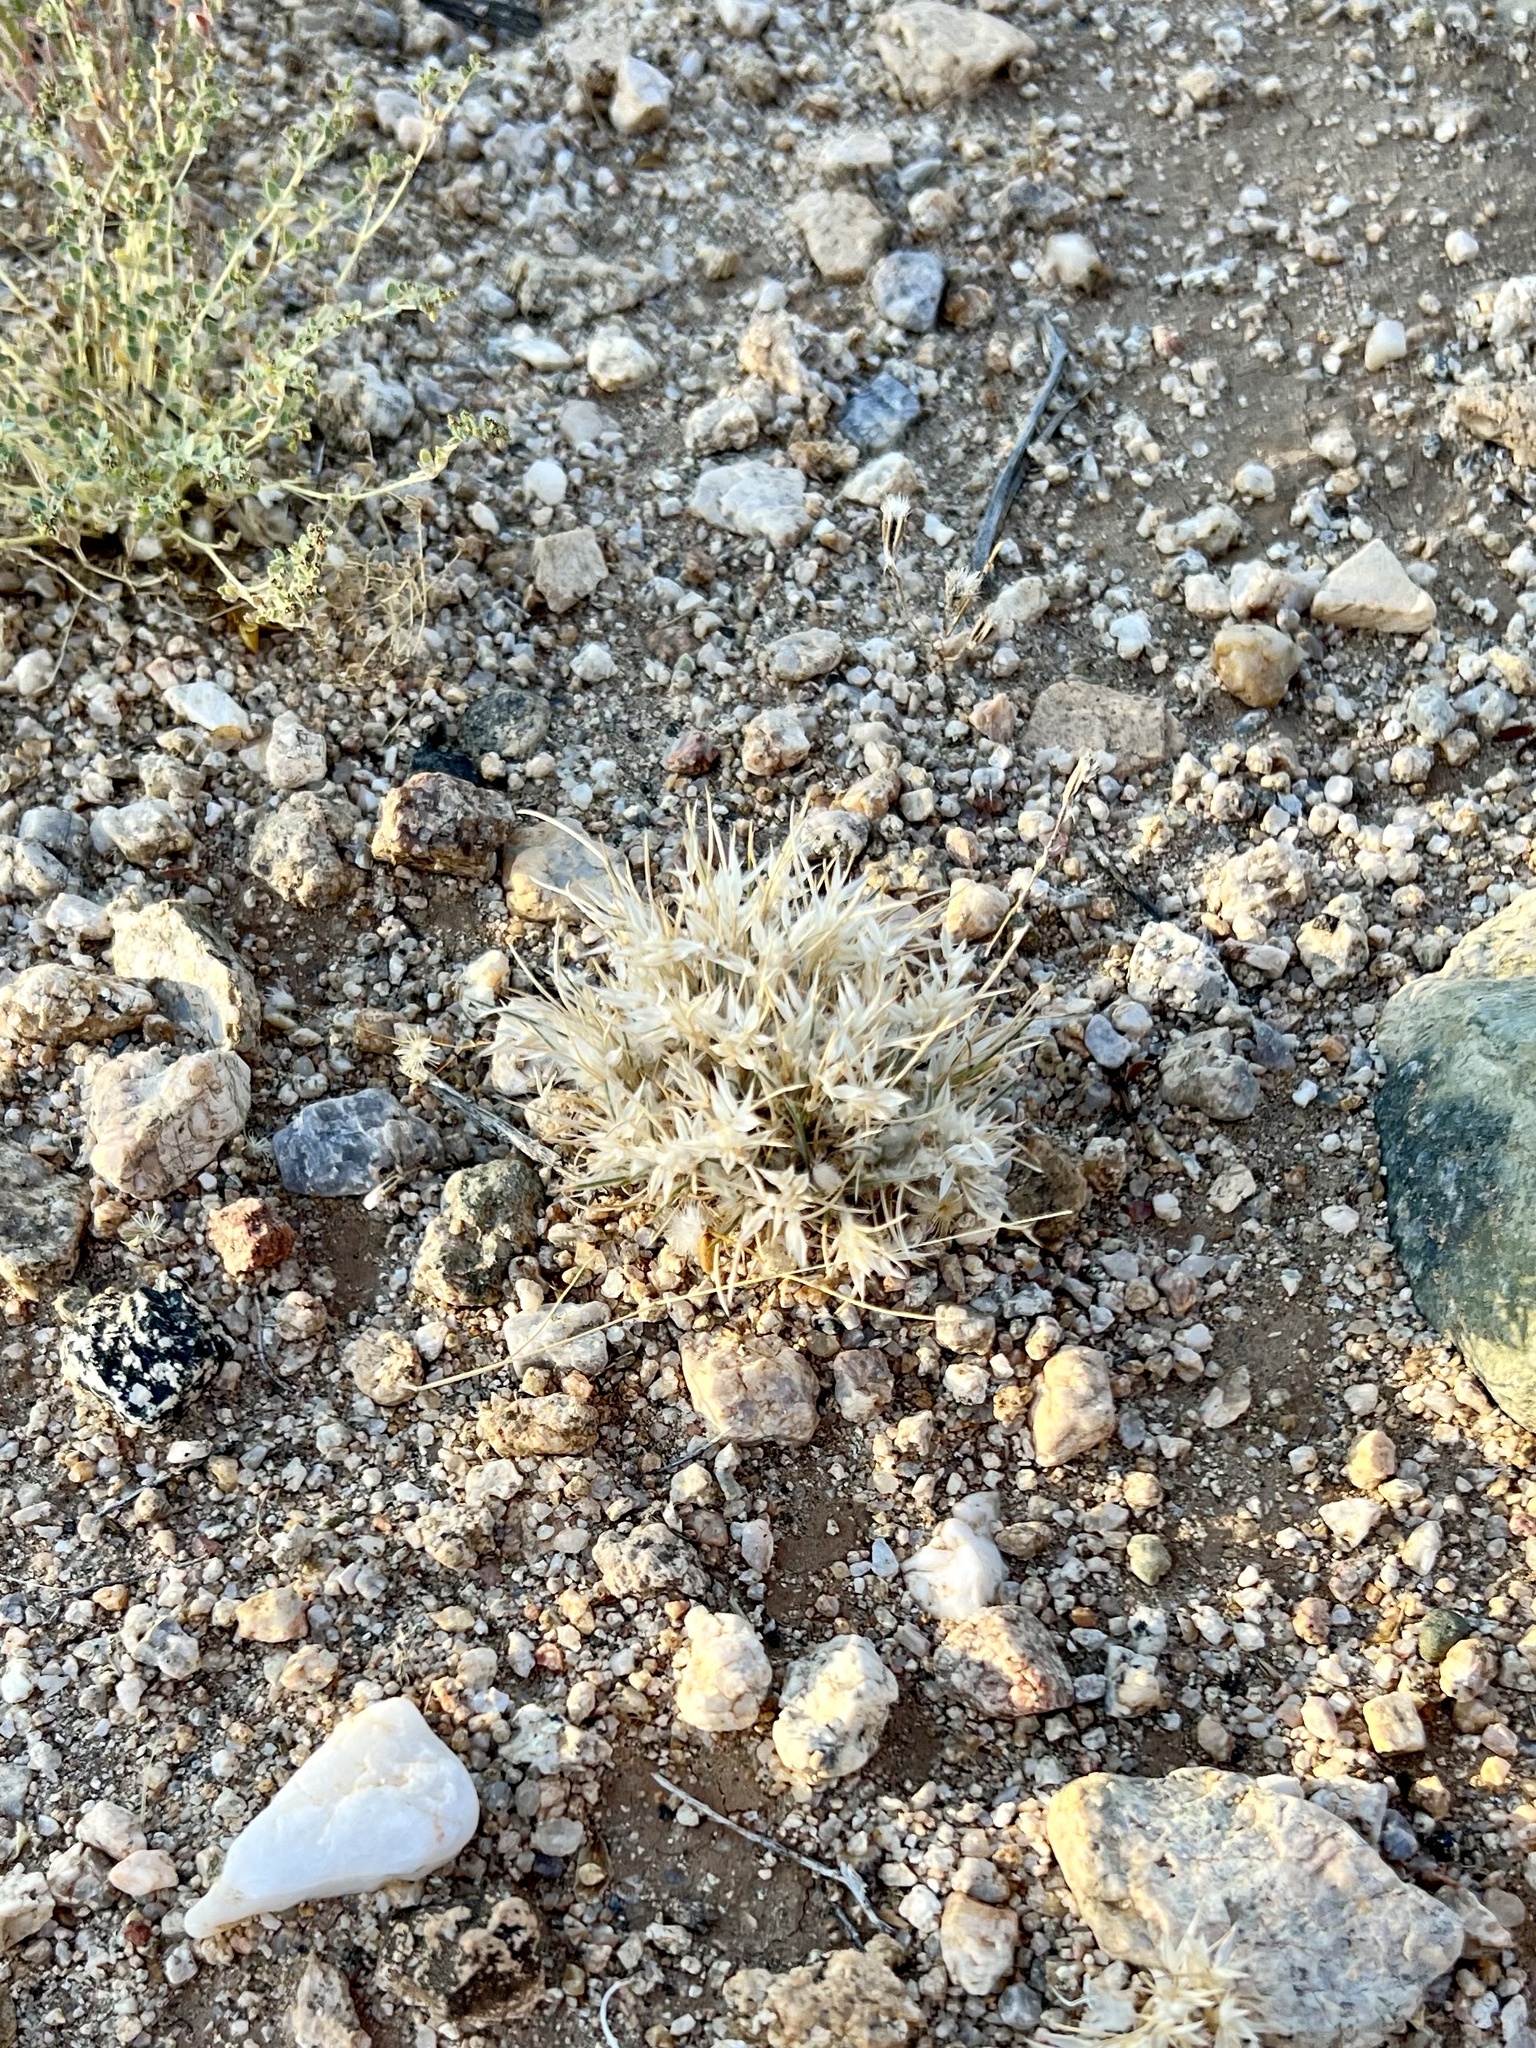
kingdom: Plantae
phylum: Tracheophyta
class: Liliopsida
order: Poales
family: Poaceae
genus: Dasyochloa
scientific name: Dasyochloa pulchella
